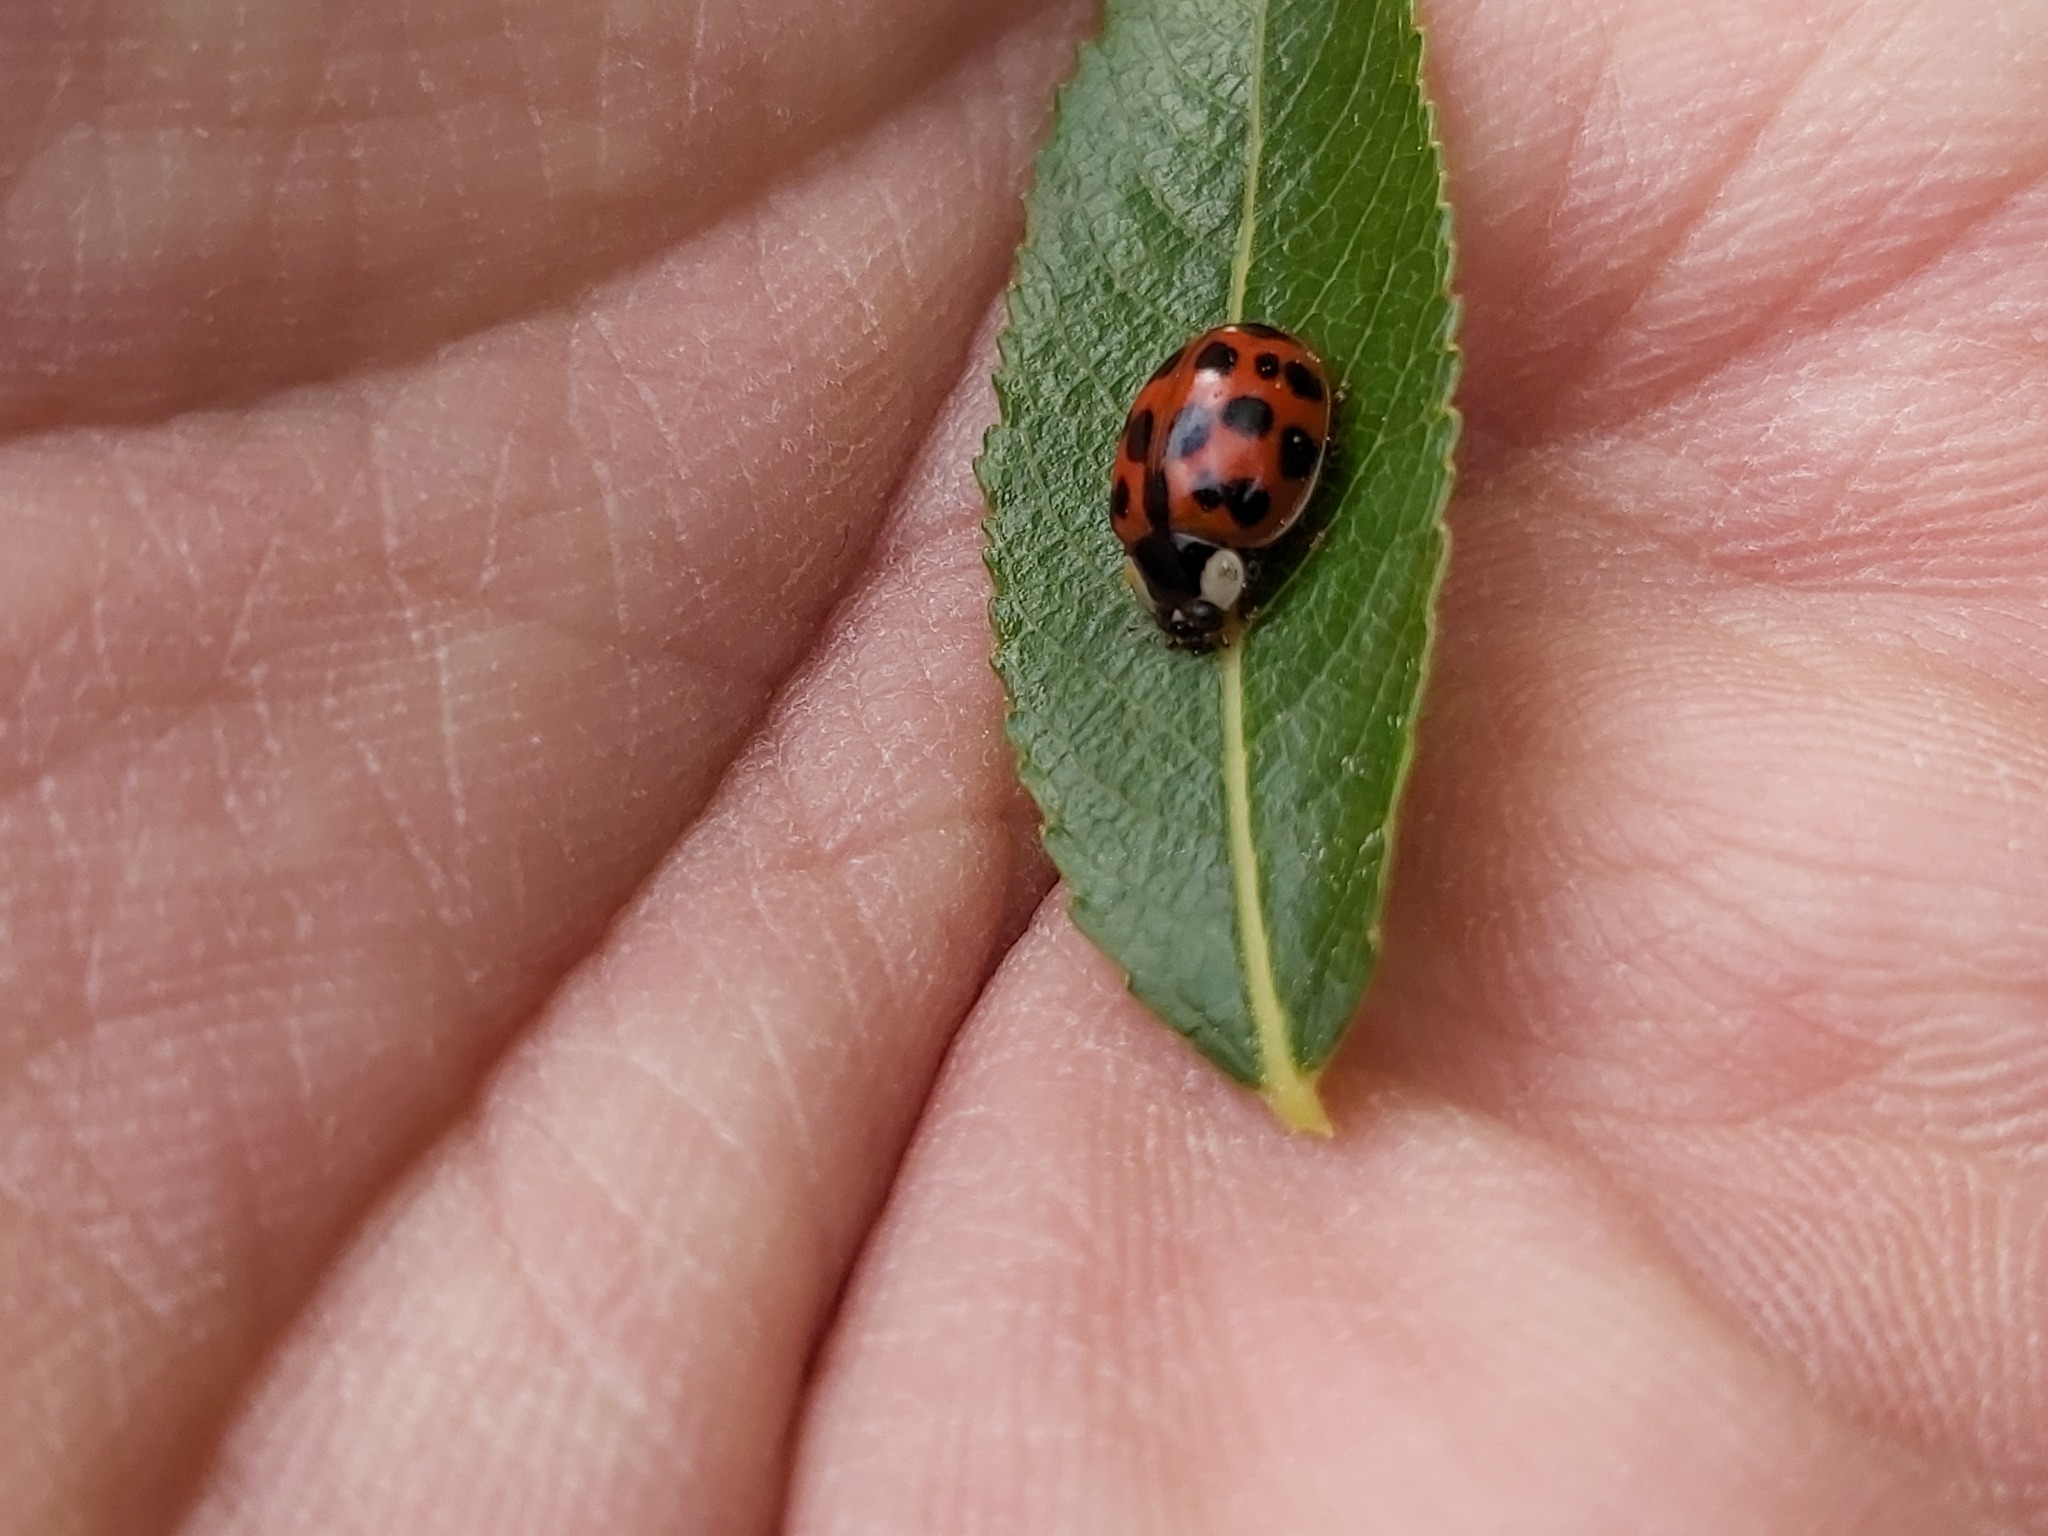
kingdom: Animalia
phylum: Arthropoda
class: Insecta
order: Coleoptera
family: Coccinellidae
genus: Harmonia
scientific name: Harmonia axyridis
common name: Harlequin ladybird
